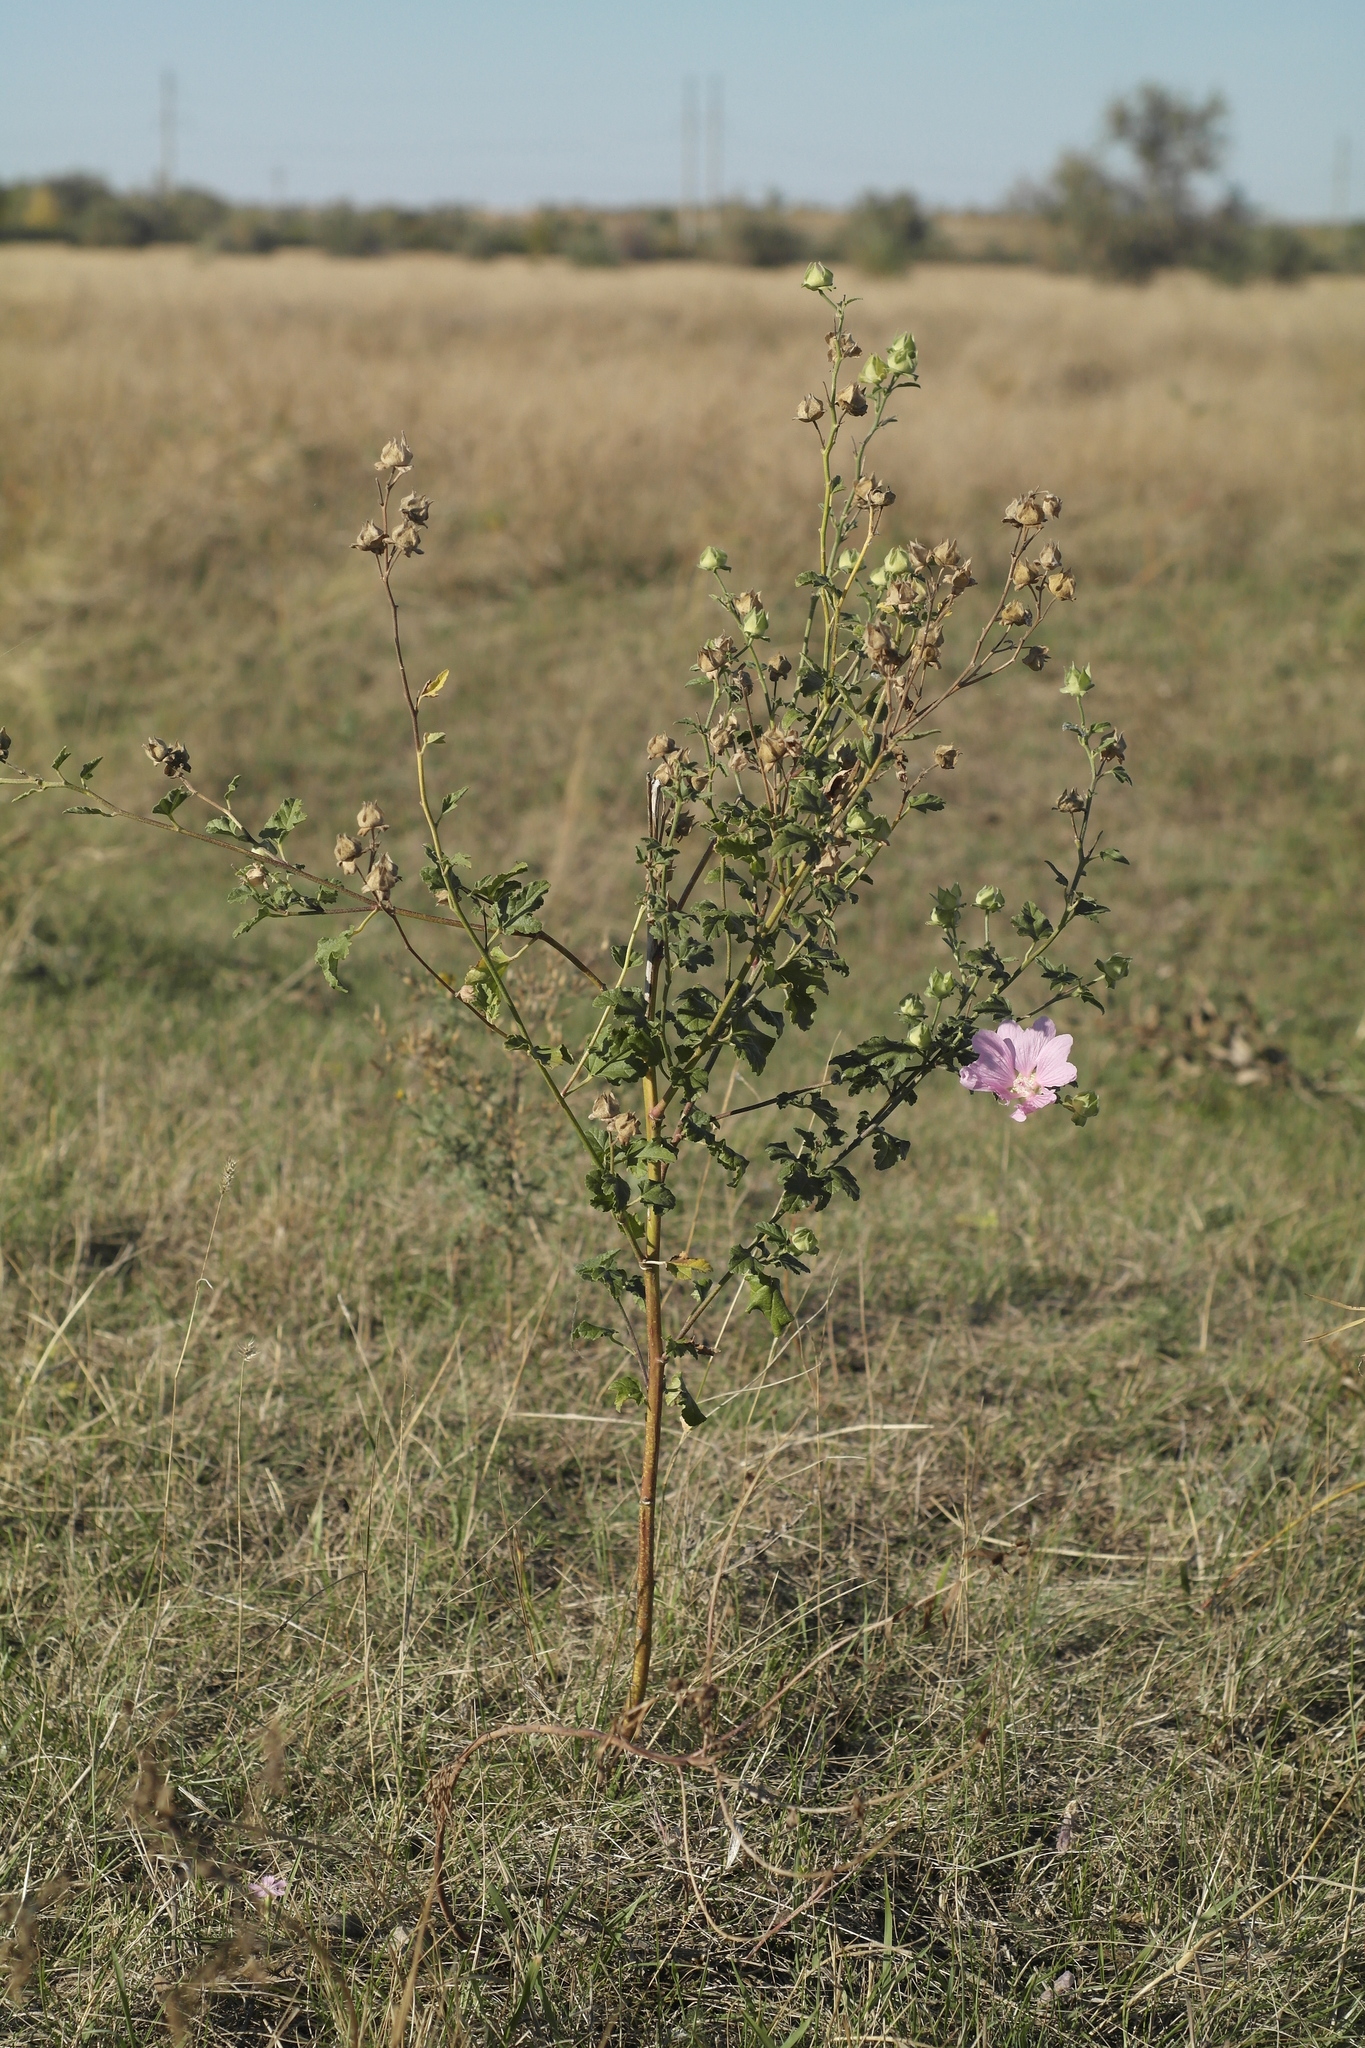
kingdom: Plantae
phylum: Tracheophyta
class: Magnoliopsida
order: Malvales
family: Malvaceae
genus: Malva
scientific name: Malva thuringiaca
